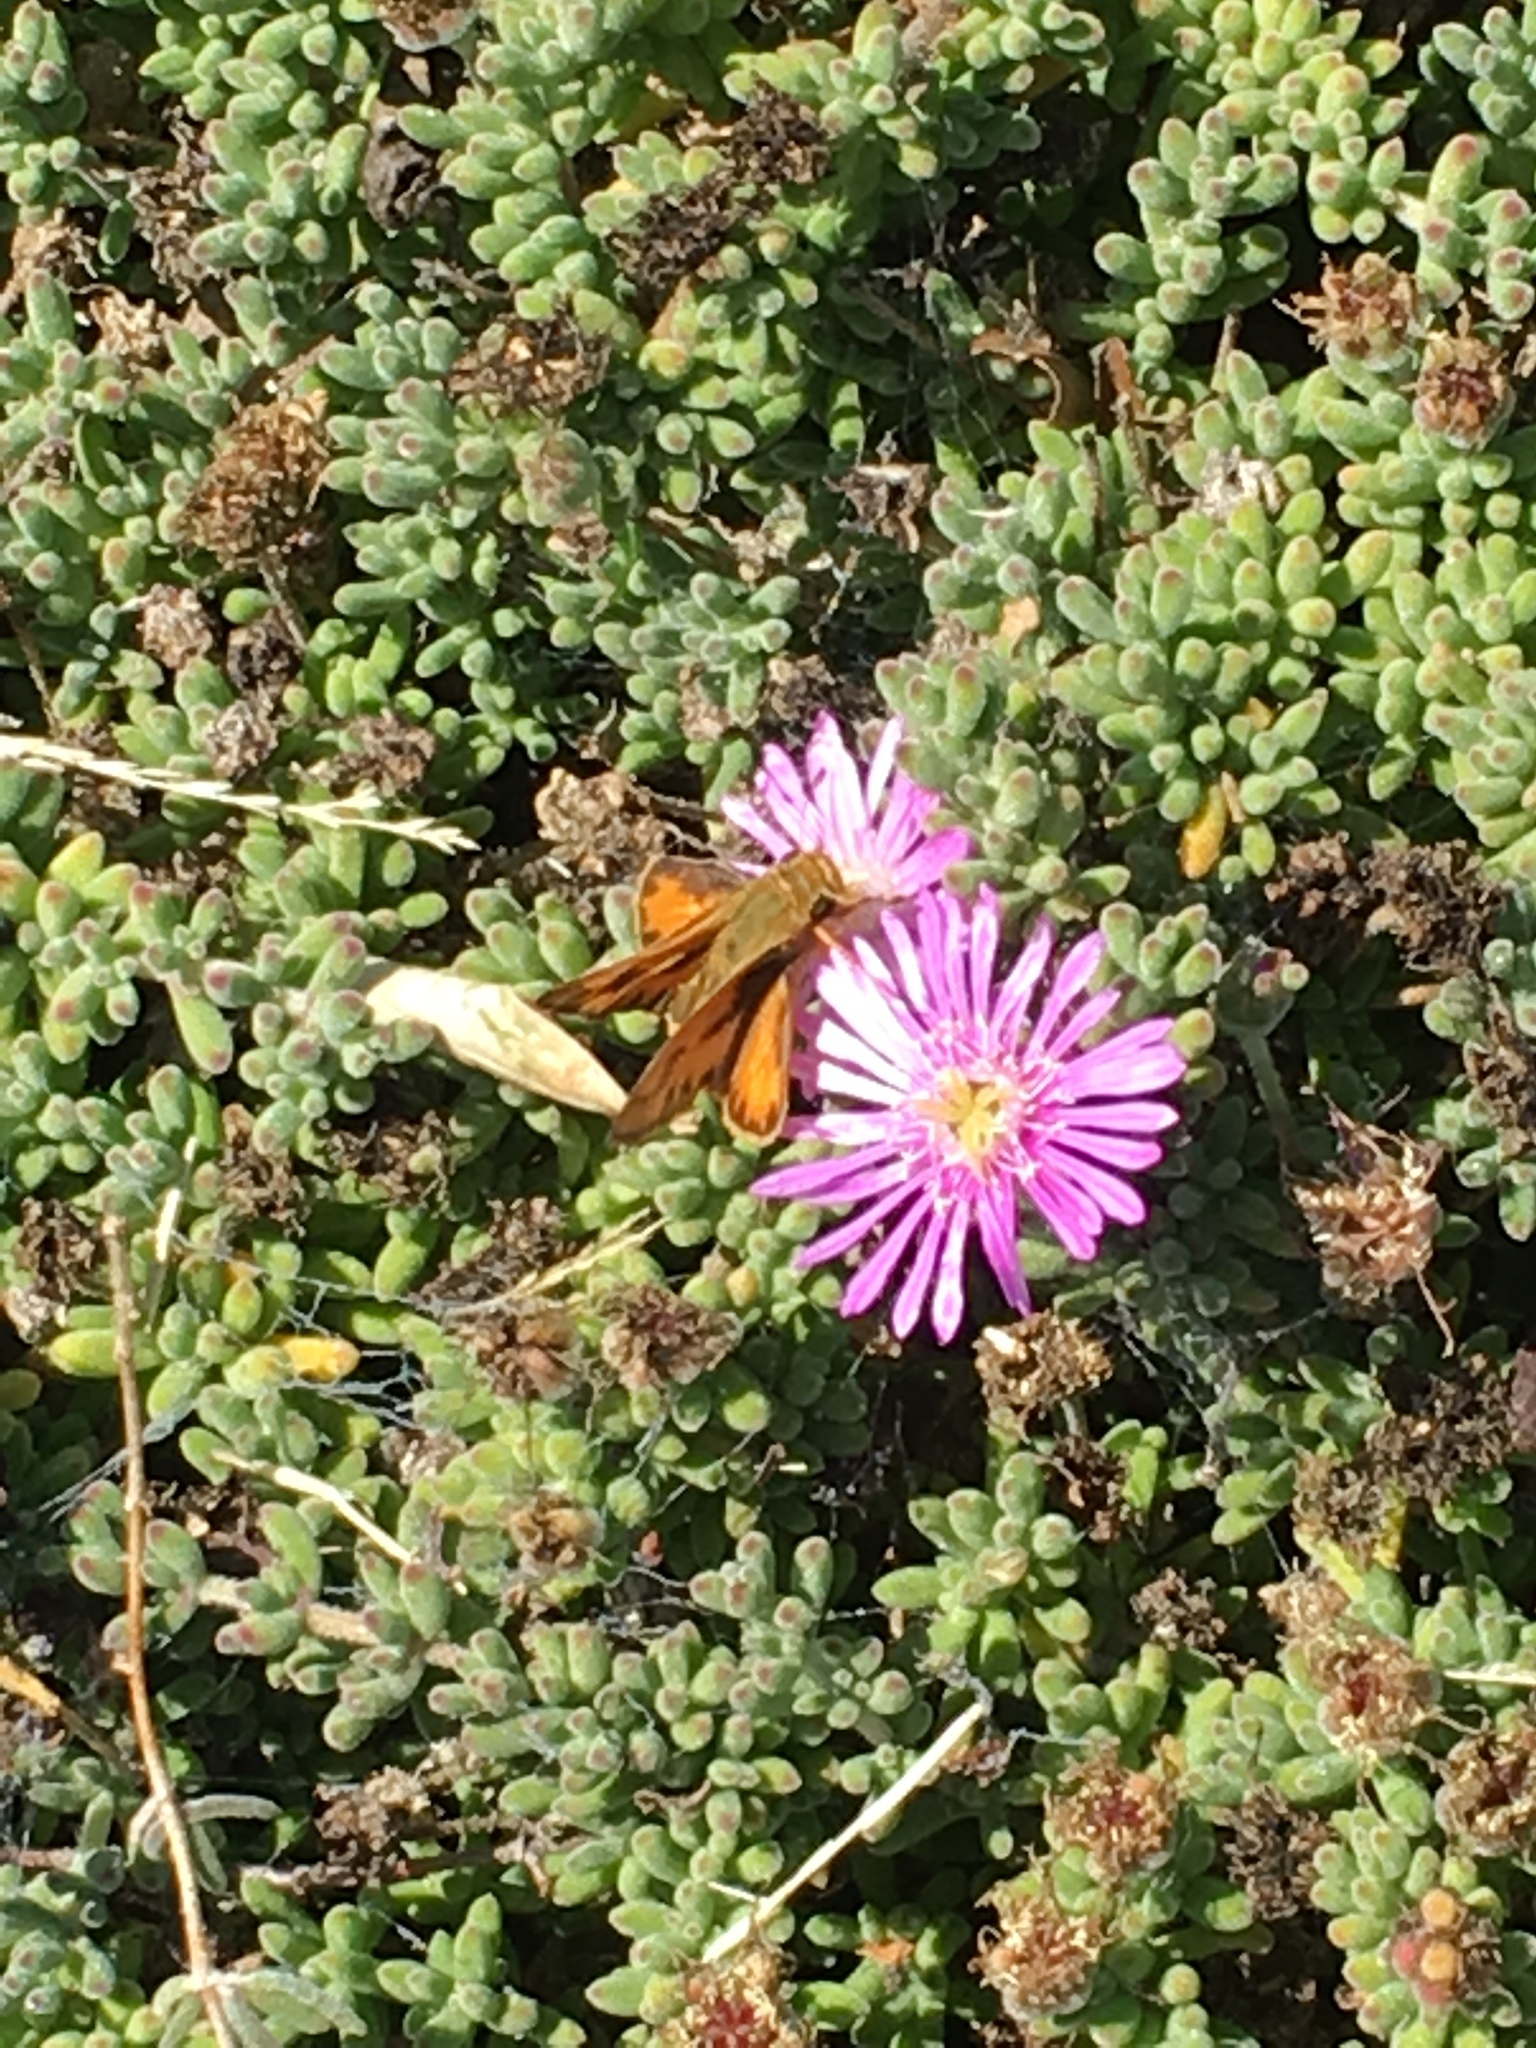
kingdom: Animalia
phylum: Arthropoda
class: Insecta
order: Lepidoptera
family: Hesperiidae
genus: Hylephila
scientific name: Hylephila phyleus
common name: Fiery skipper
